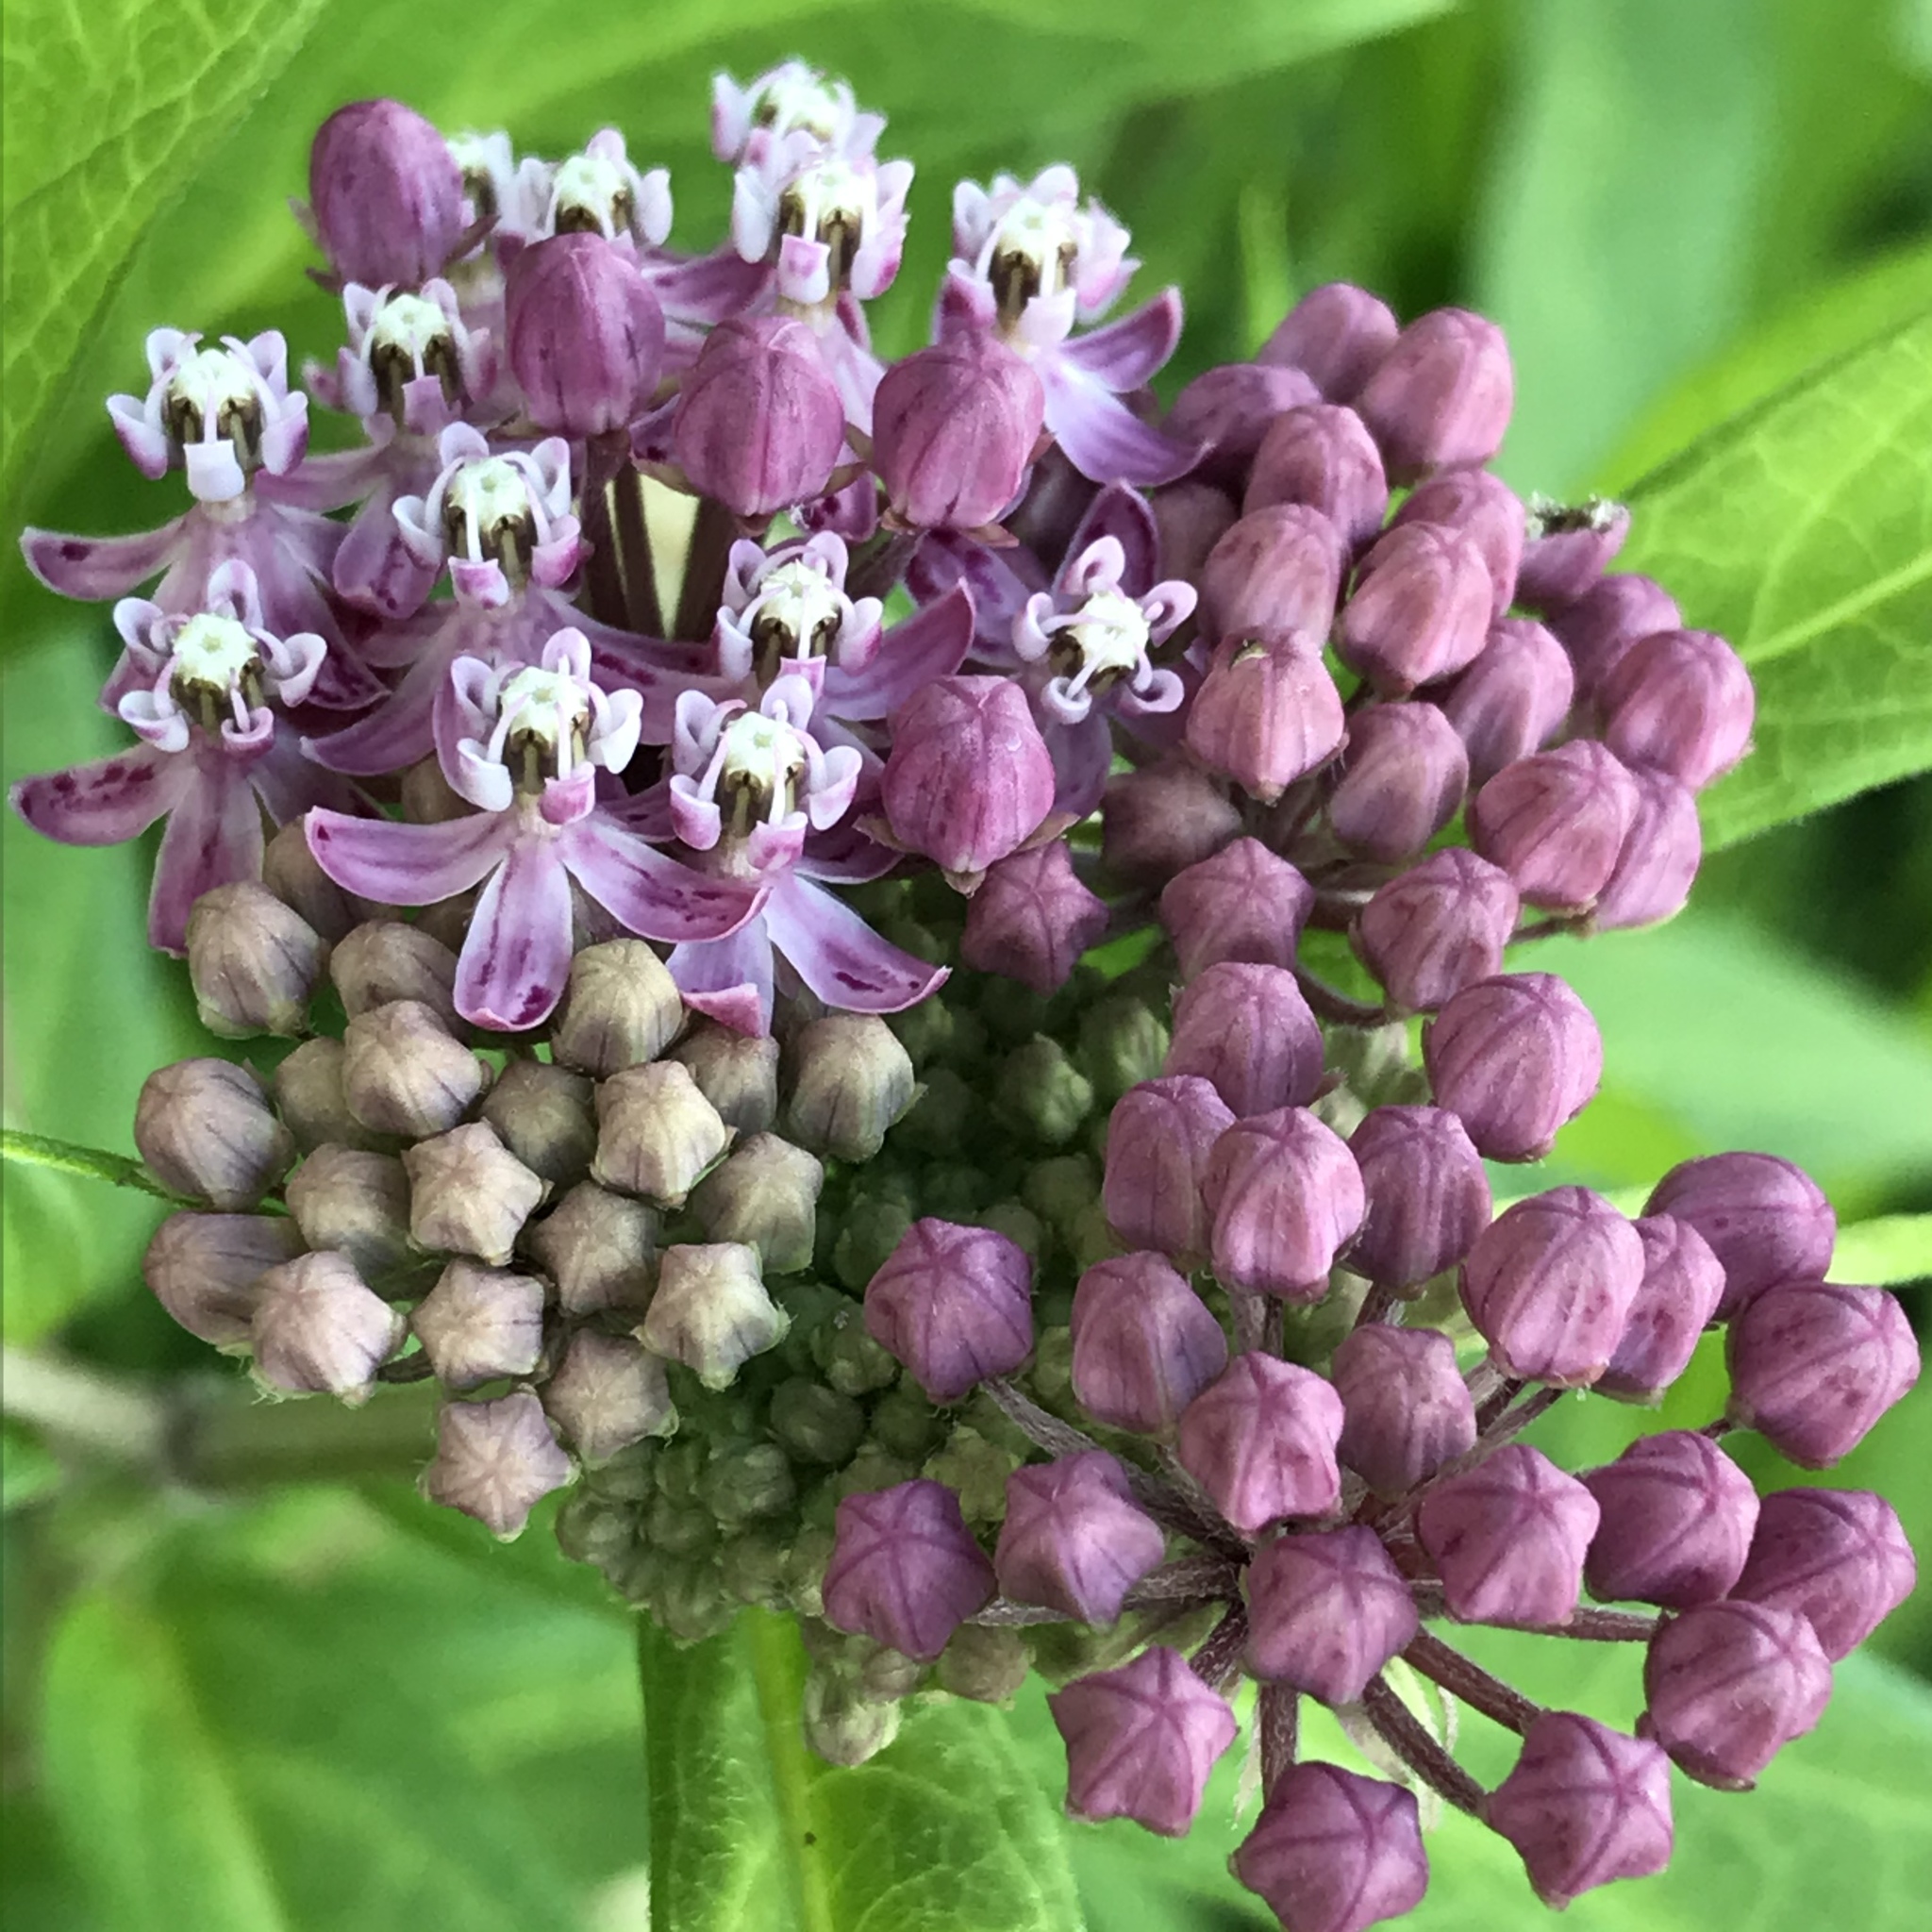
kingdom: Plantae
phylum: Tracheophyta
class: Magnoliopsida
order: Gentianales
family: Apocynaceae
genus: Asclepias
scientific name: Asclepias incarnata
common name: Swamp milkweed
